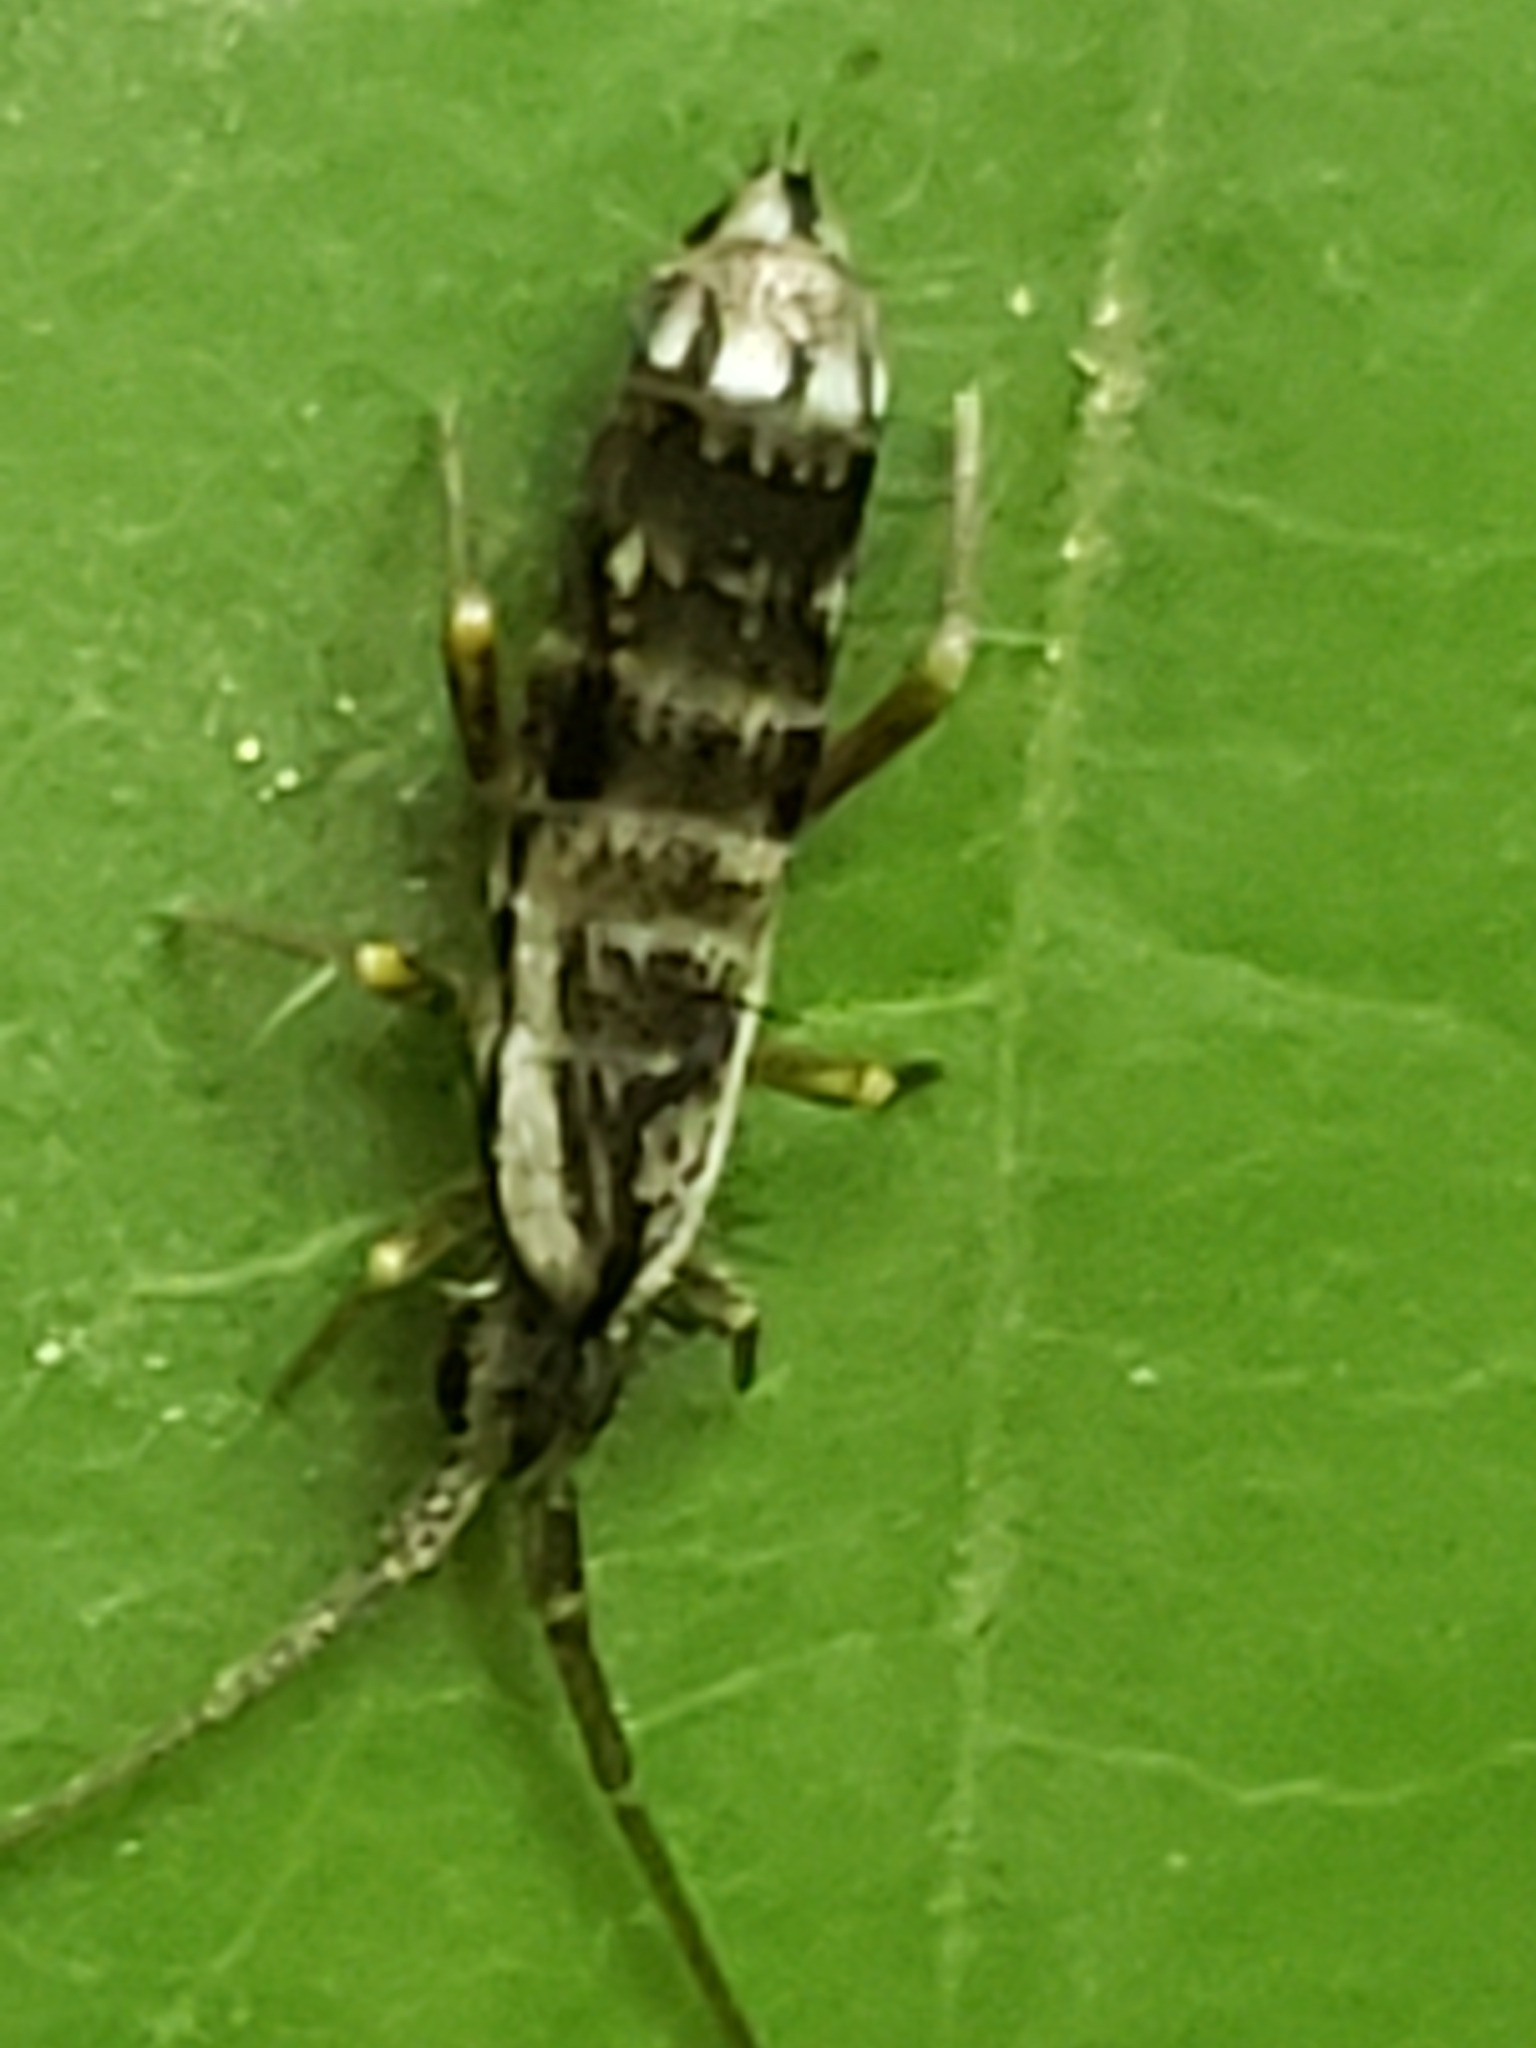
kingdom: Animalia
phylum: Arthropoda
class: Collembola
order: Entomobryomorpha
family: Tomoceridae
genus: Pogonognathellus
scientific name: Pogonognathellus elongatus
